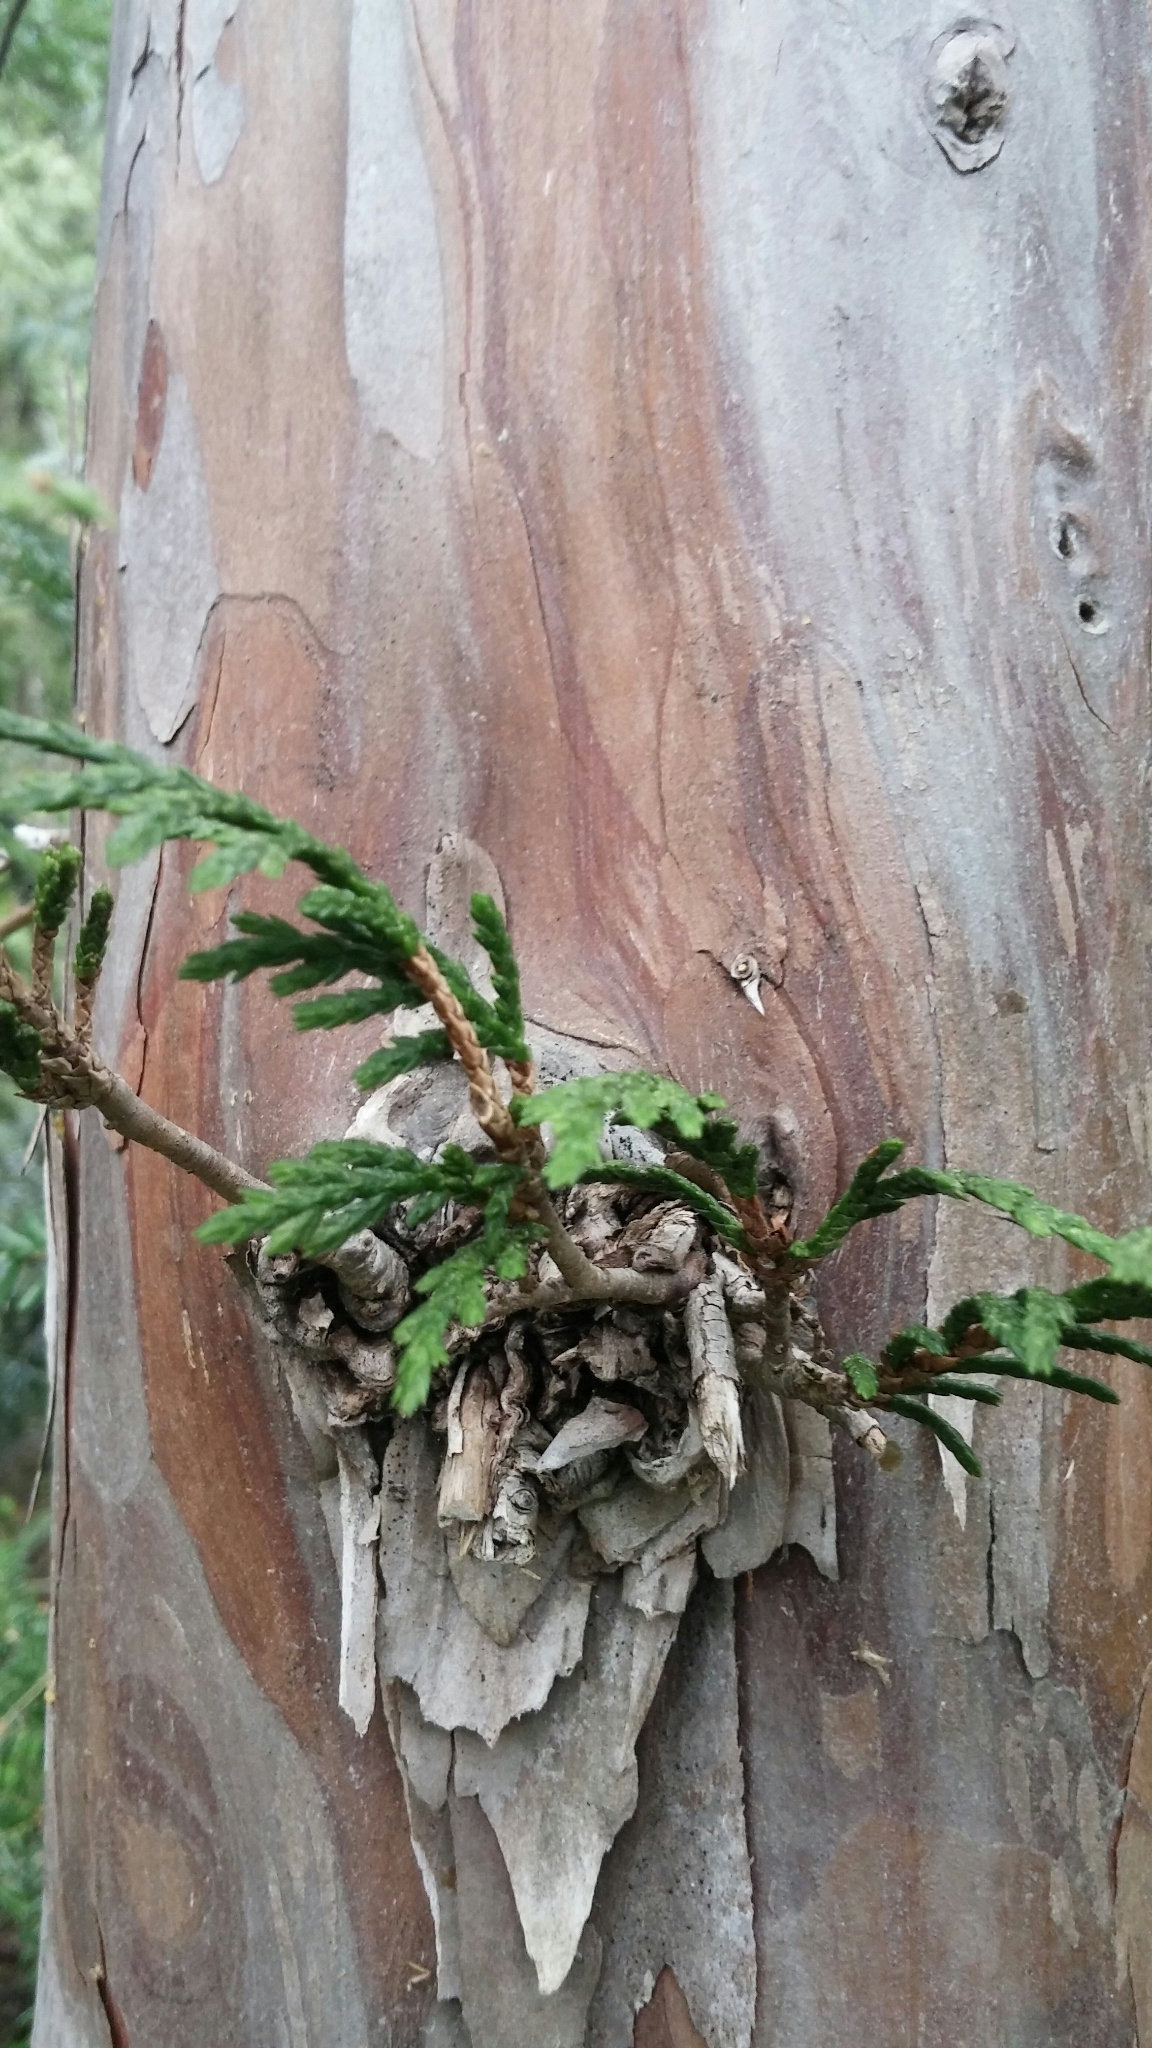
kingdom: Plantae
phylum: Tracheophyta
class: Pinopsida
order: Pinales
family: Cupressaceae
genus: Xanthocyparis
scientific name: Xanthocyparis nootkatensis
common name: Nootka cypress
